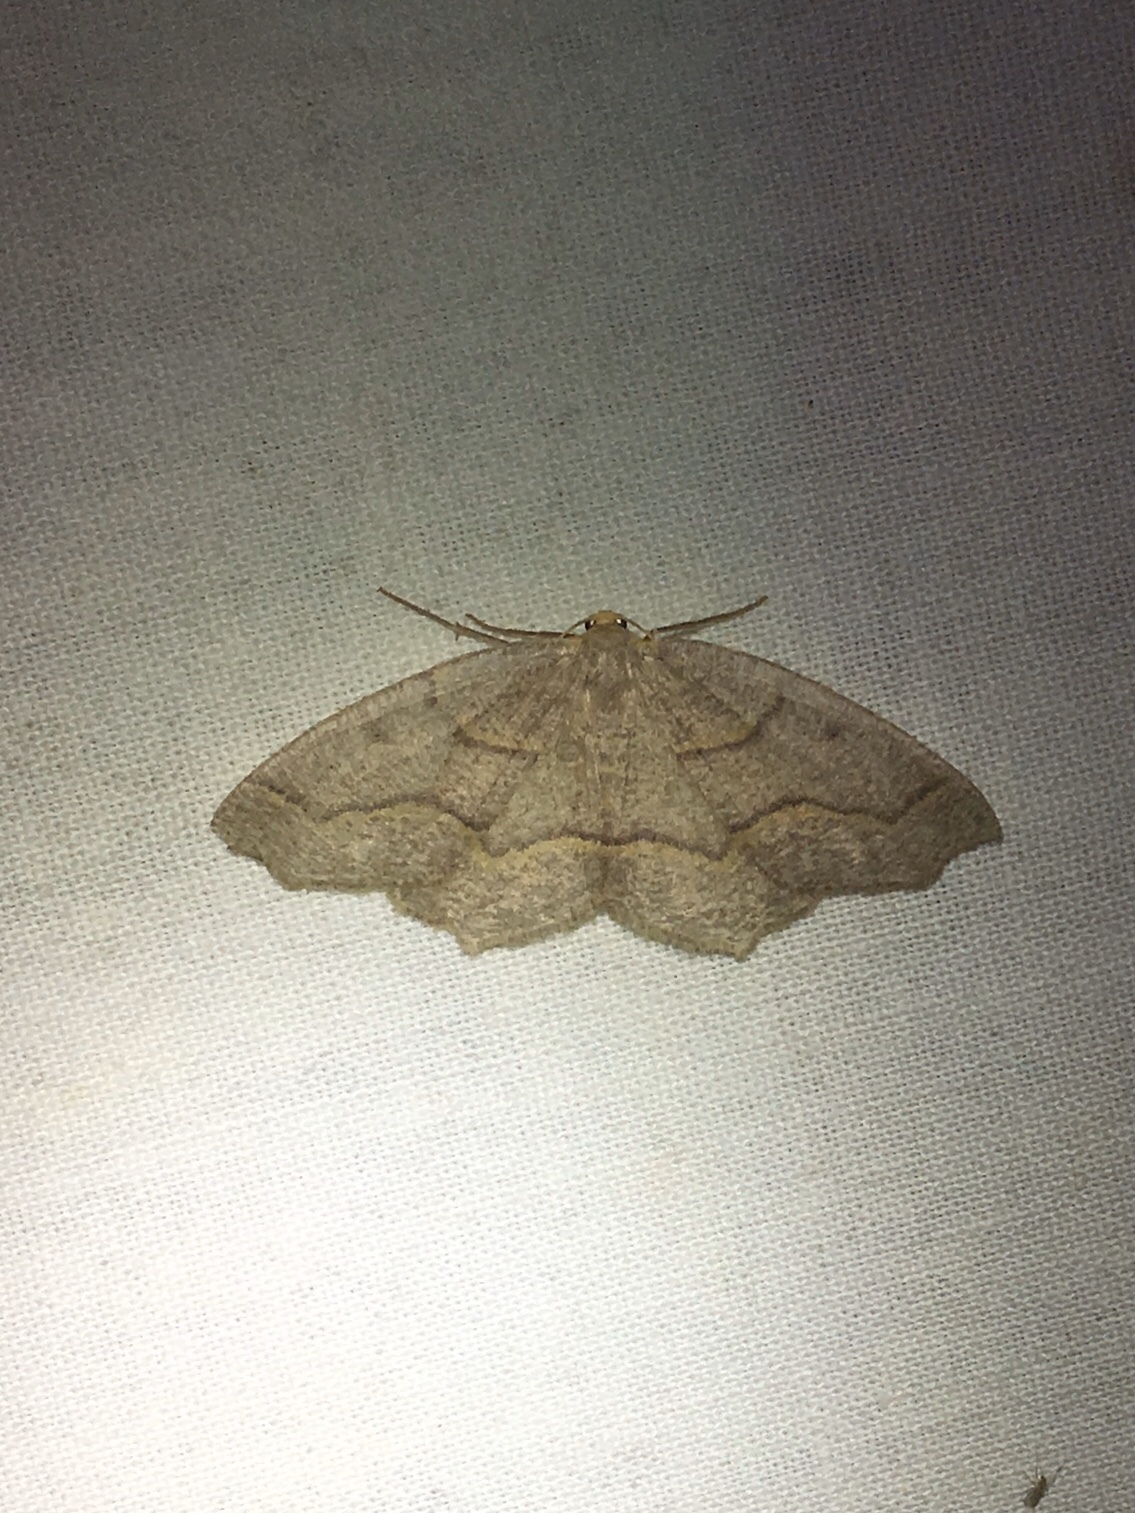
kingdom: Animalia
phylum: Arthropoda
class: Insecta
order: Lepidoptera
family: Geometridae
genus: Lambdina
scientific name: Lambdina fiscellaria
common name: Hemlock looper
